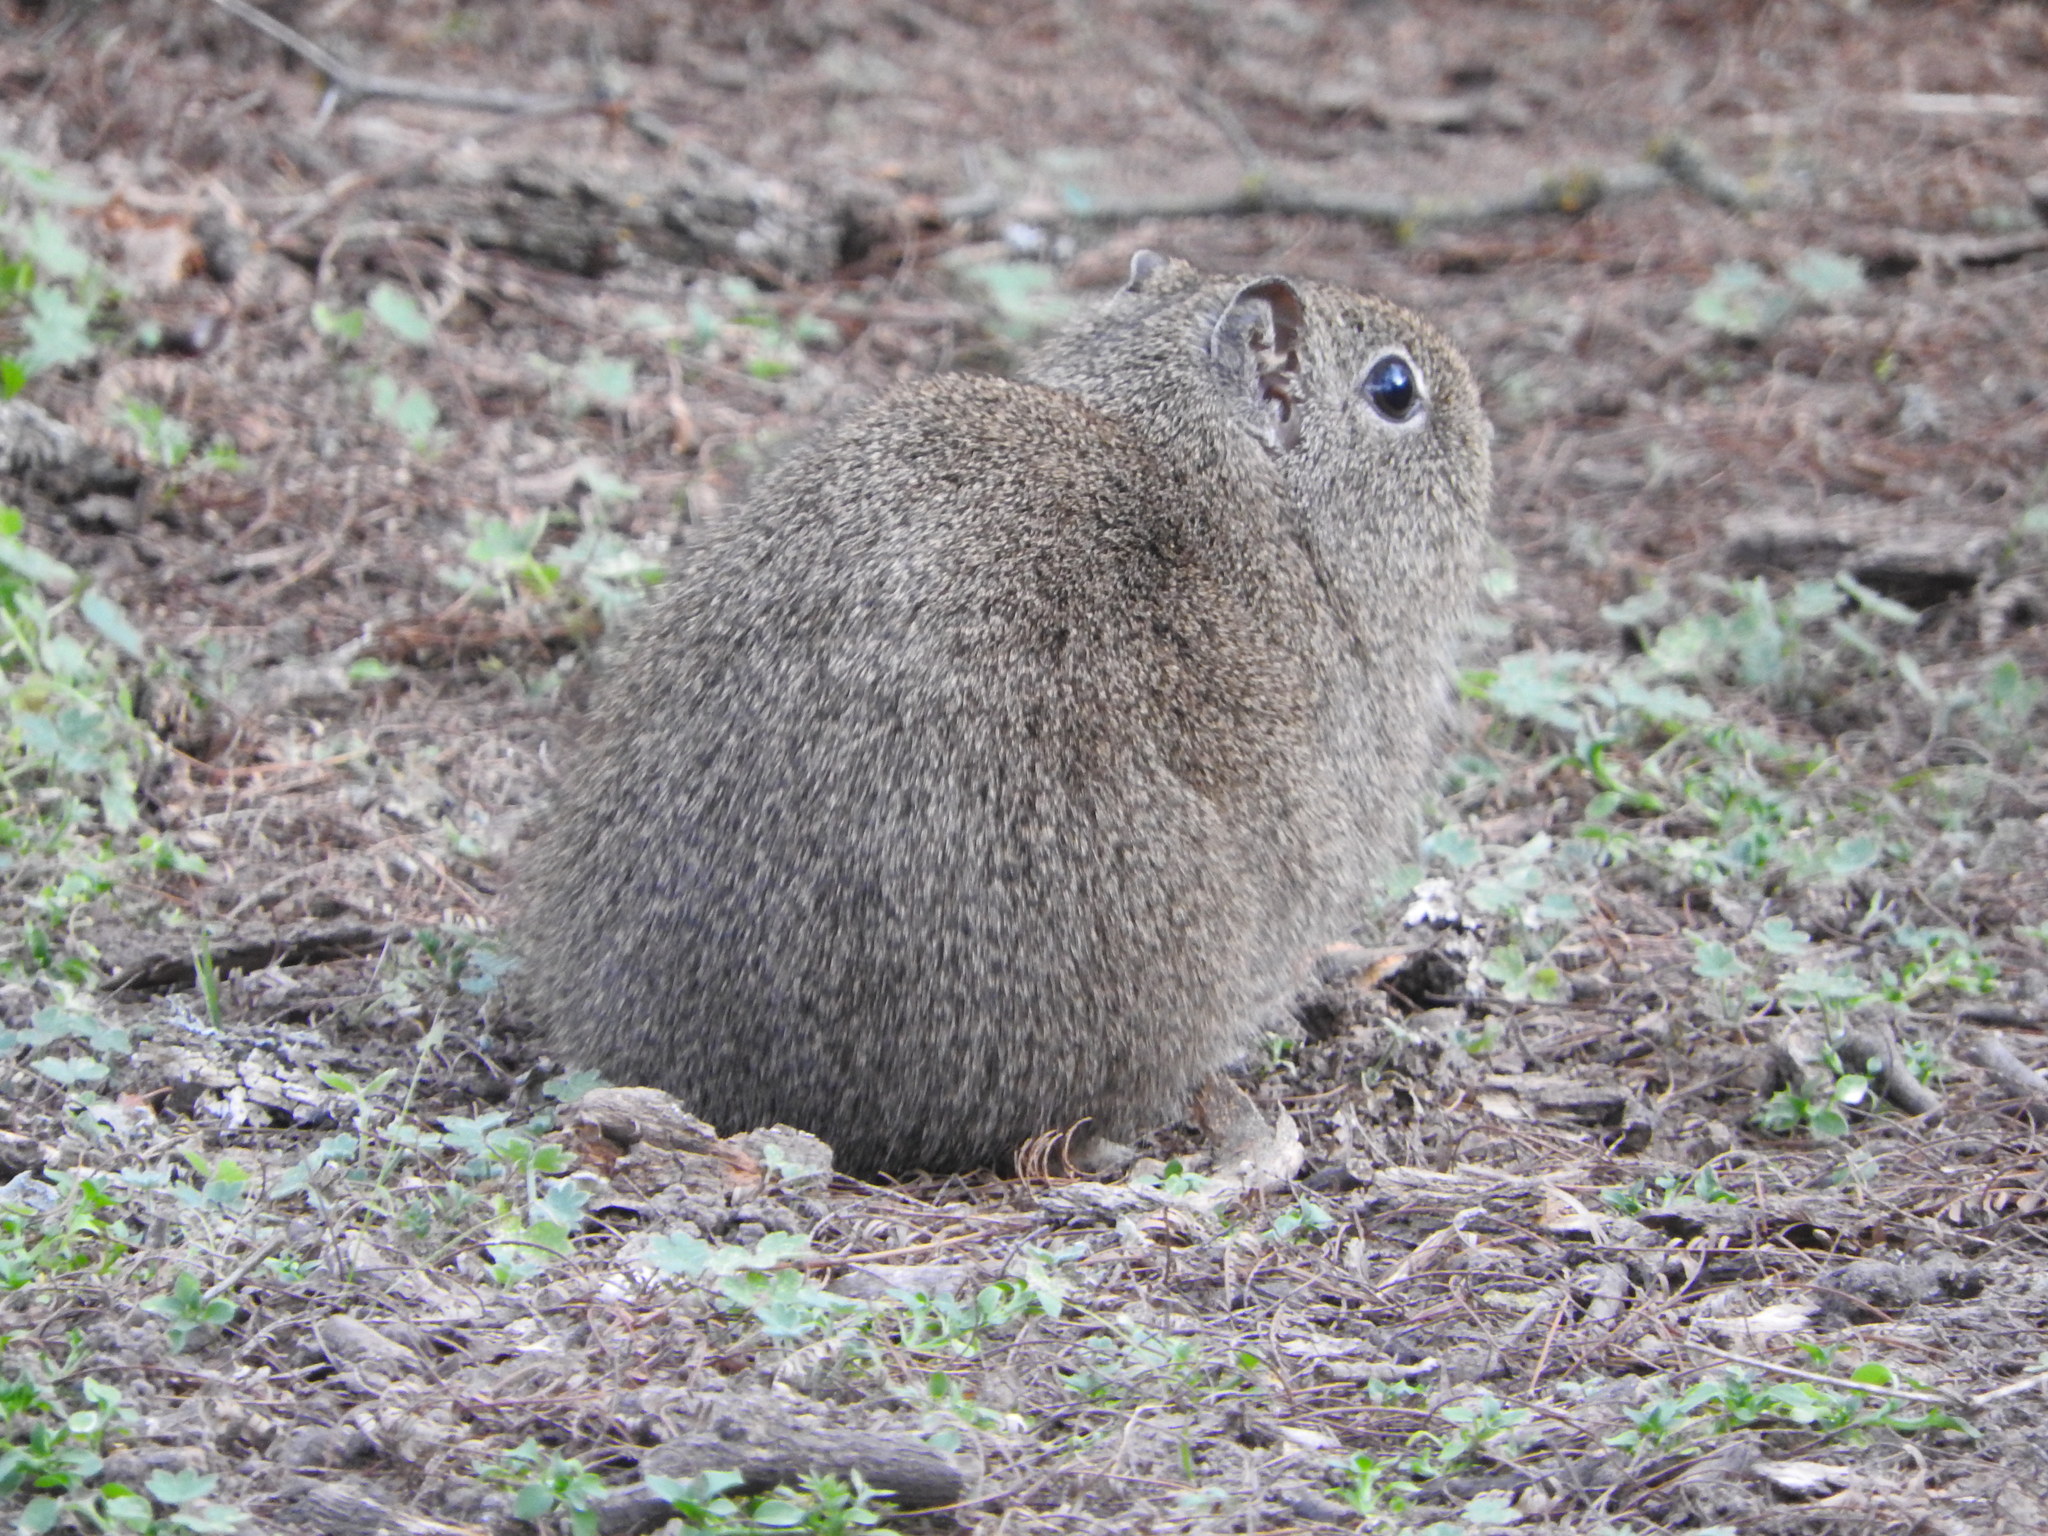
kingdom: Animalia
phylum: Chordata
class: Mammalia
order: Rodentia
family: Caviidae
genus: Galea
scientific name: Galea musteloides
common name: Common yellow-toothed cavy
